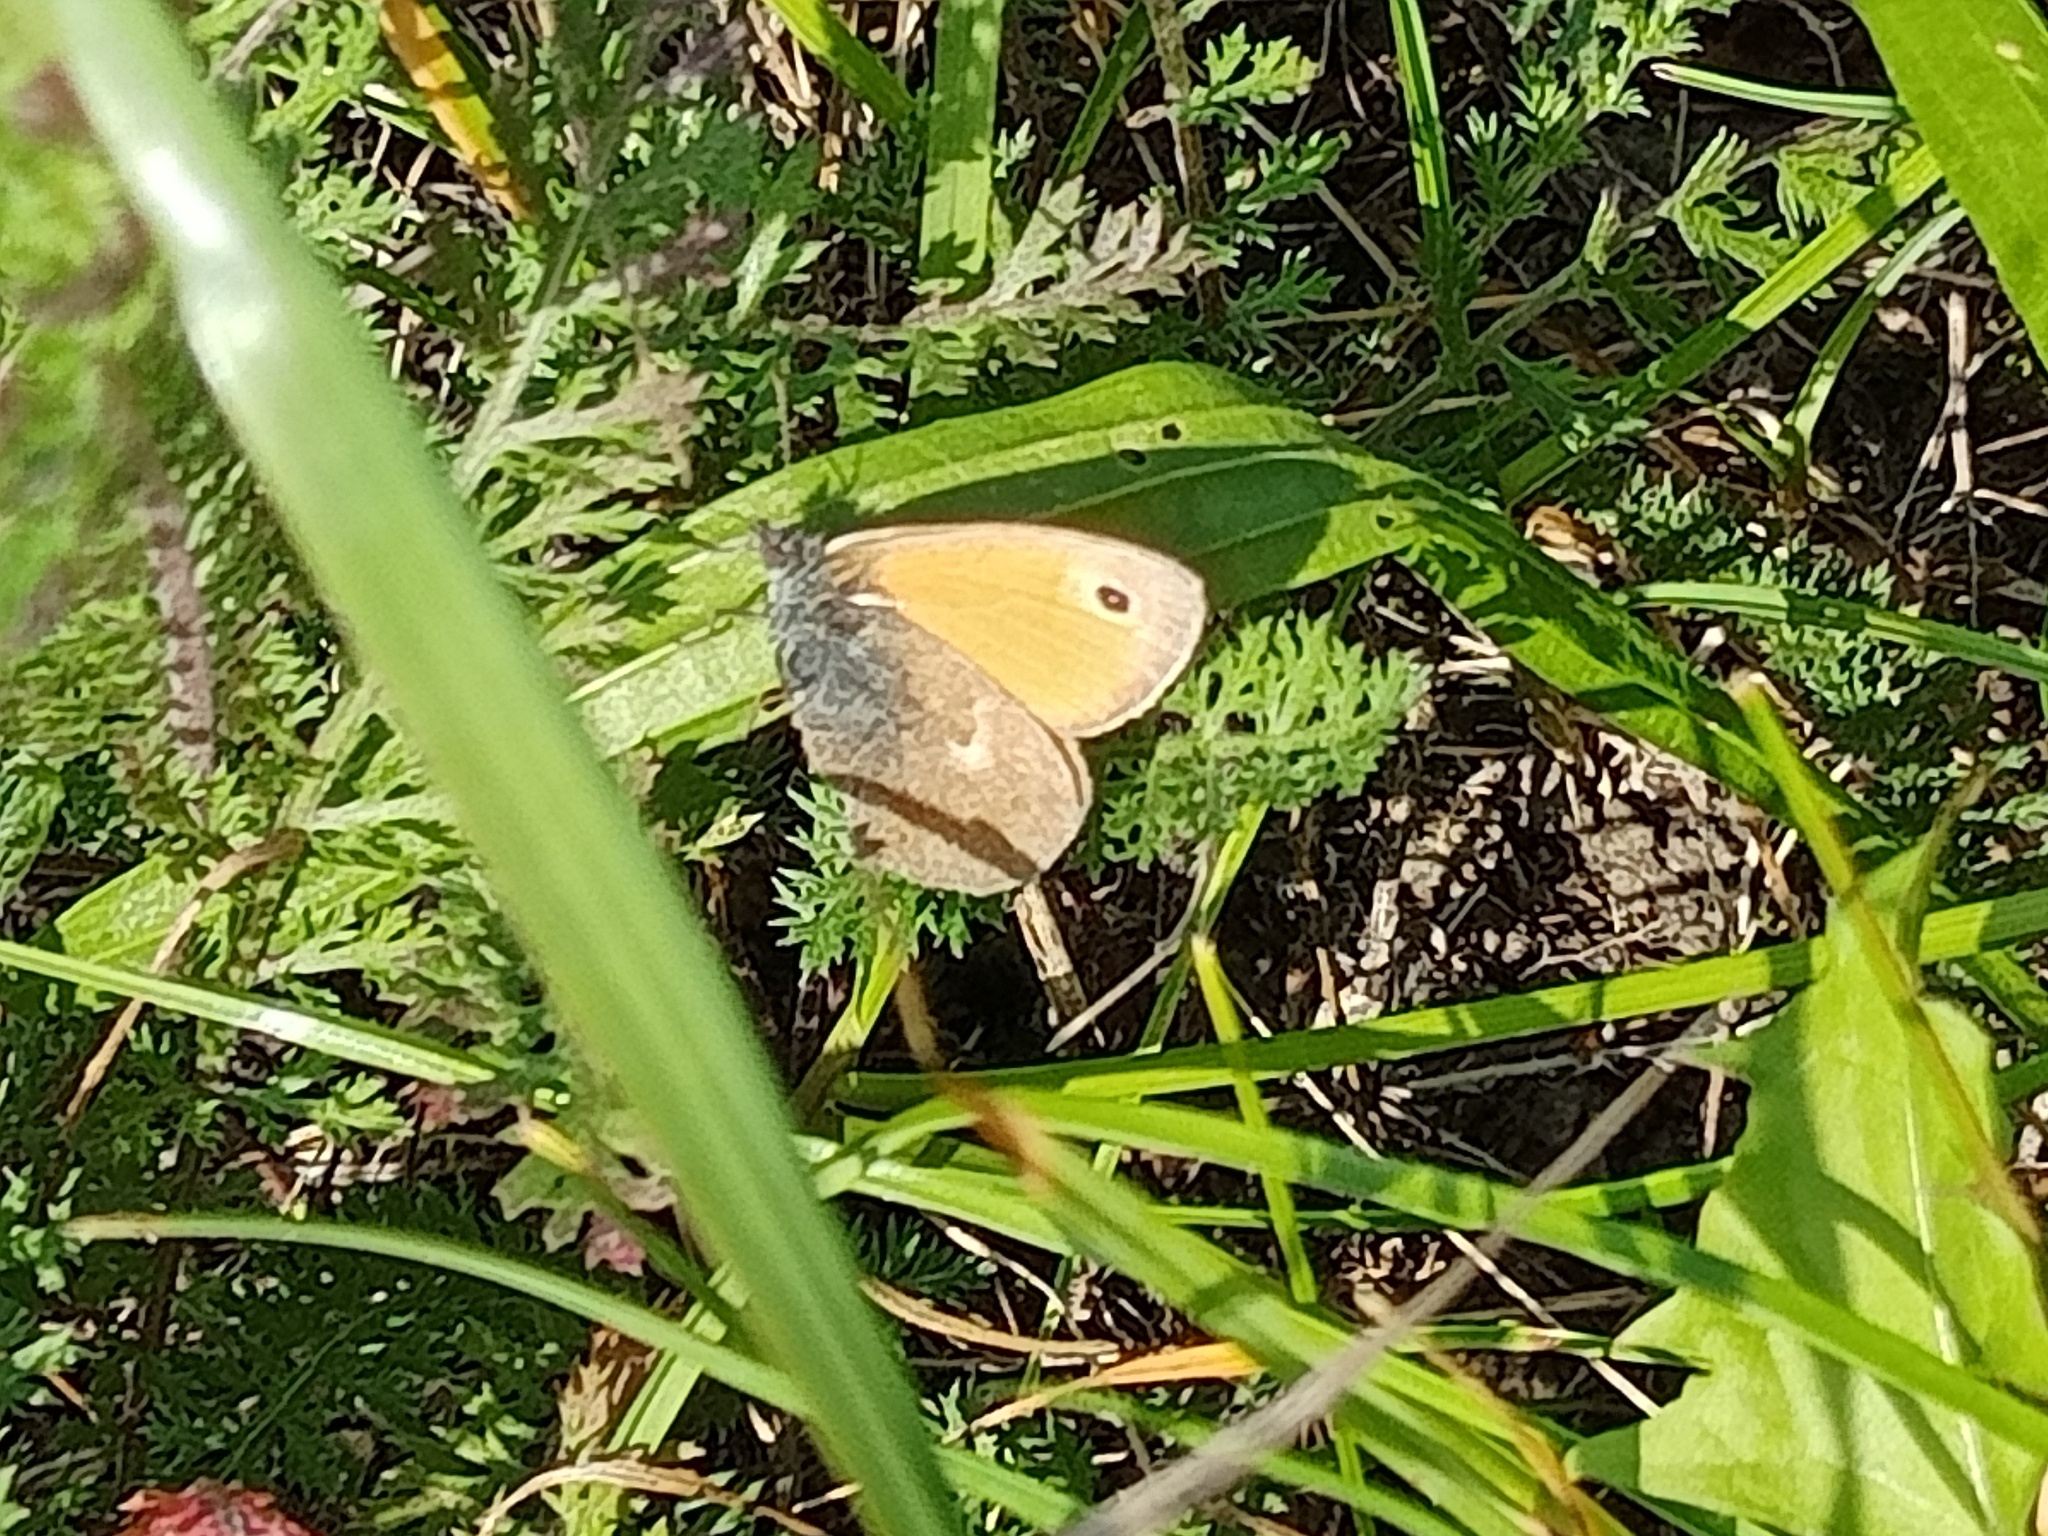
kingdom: Animalia
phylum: Arthropoda
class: Insecta
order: Lepidoptera
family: Nymphalidae
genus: Coenonympha
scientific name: Coenonympha pamphilus
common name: Small heath
